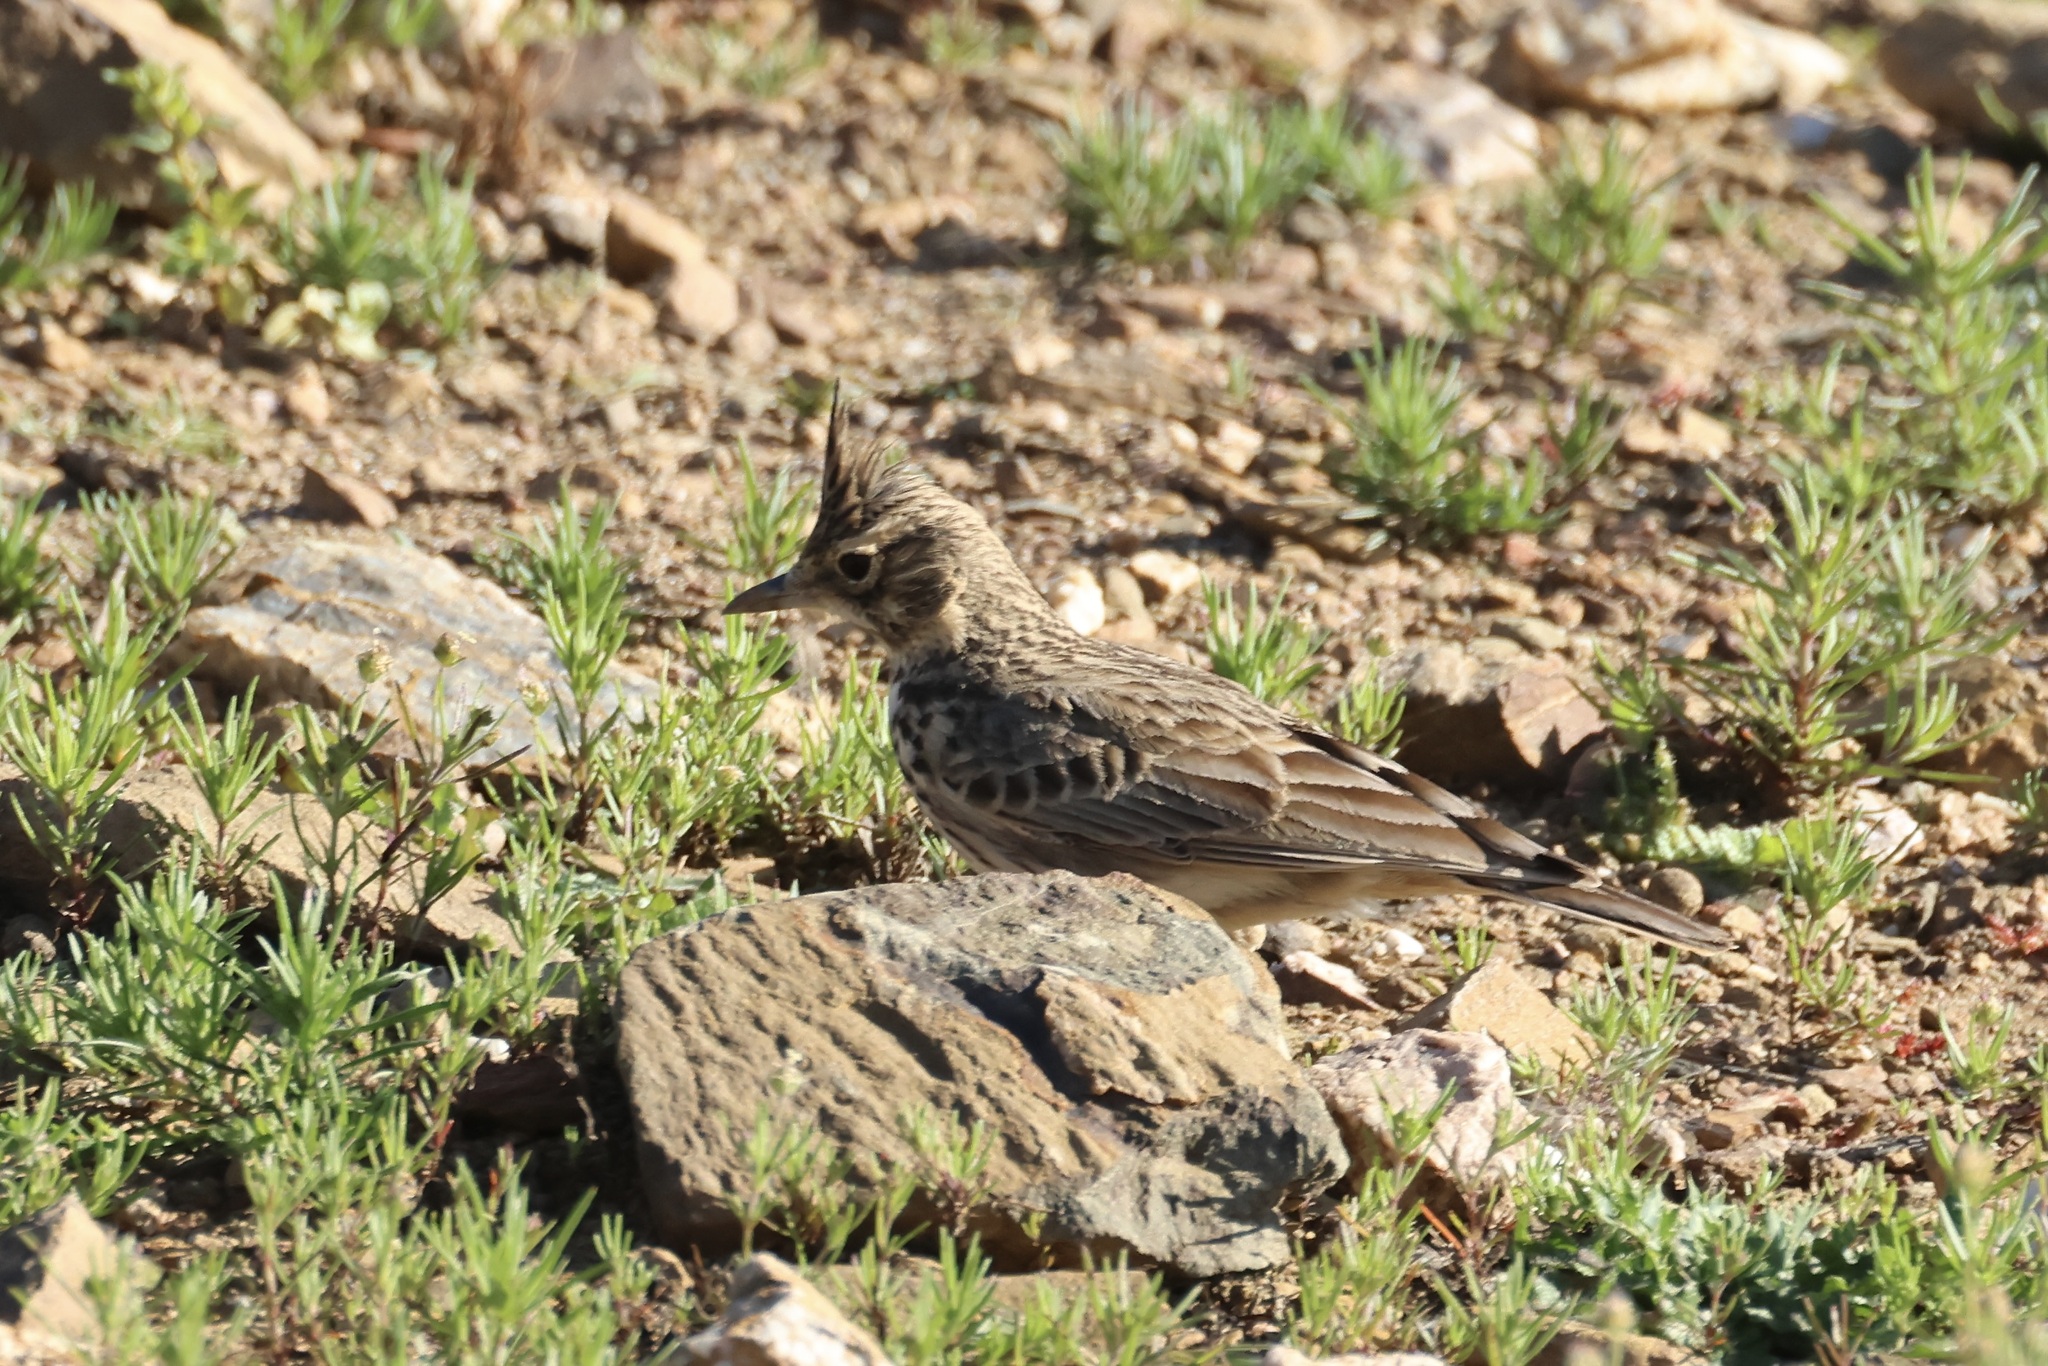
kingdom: Animalia
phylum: Chordata
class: Aves
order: Passeriformes
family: Alaudidae
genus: Galerida
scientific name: Galerida theklae
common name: Thekla lark
